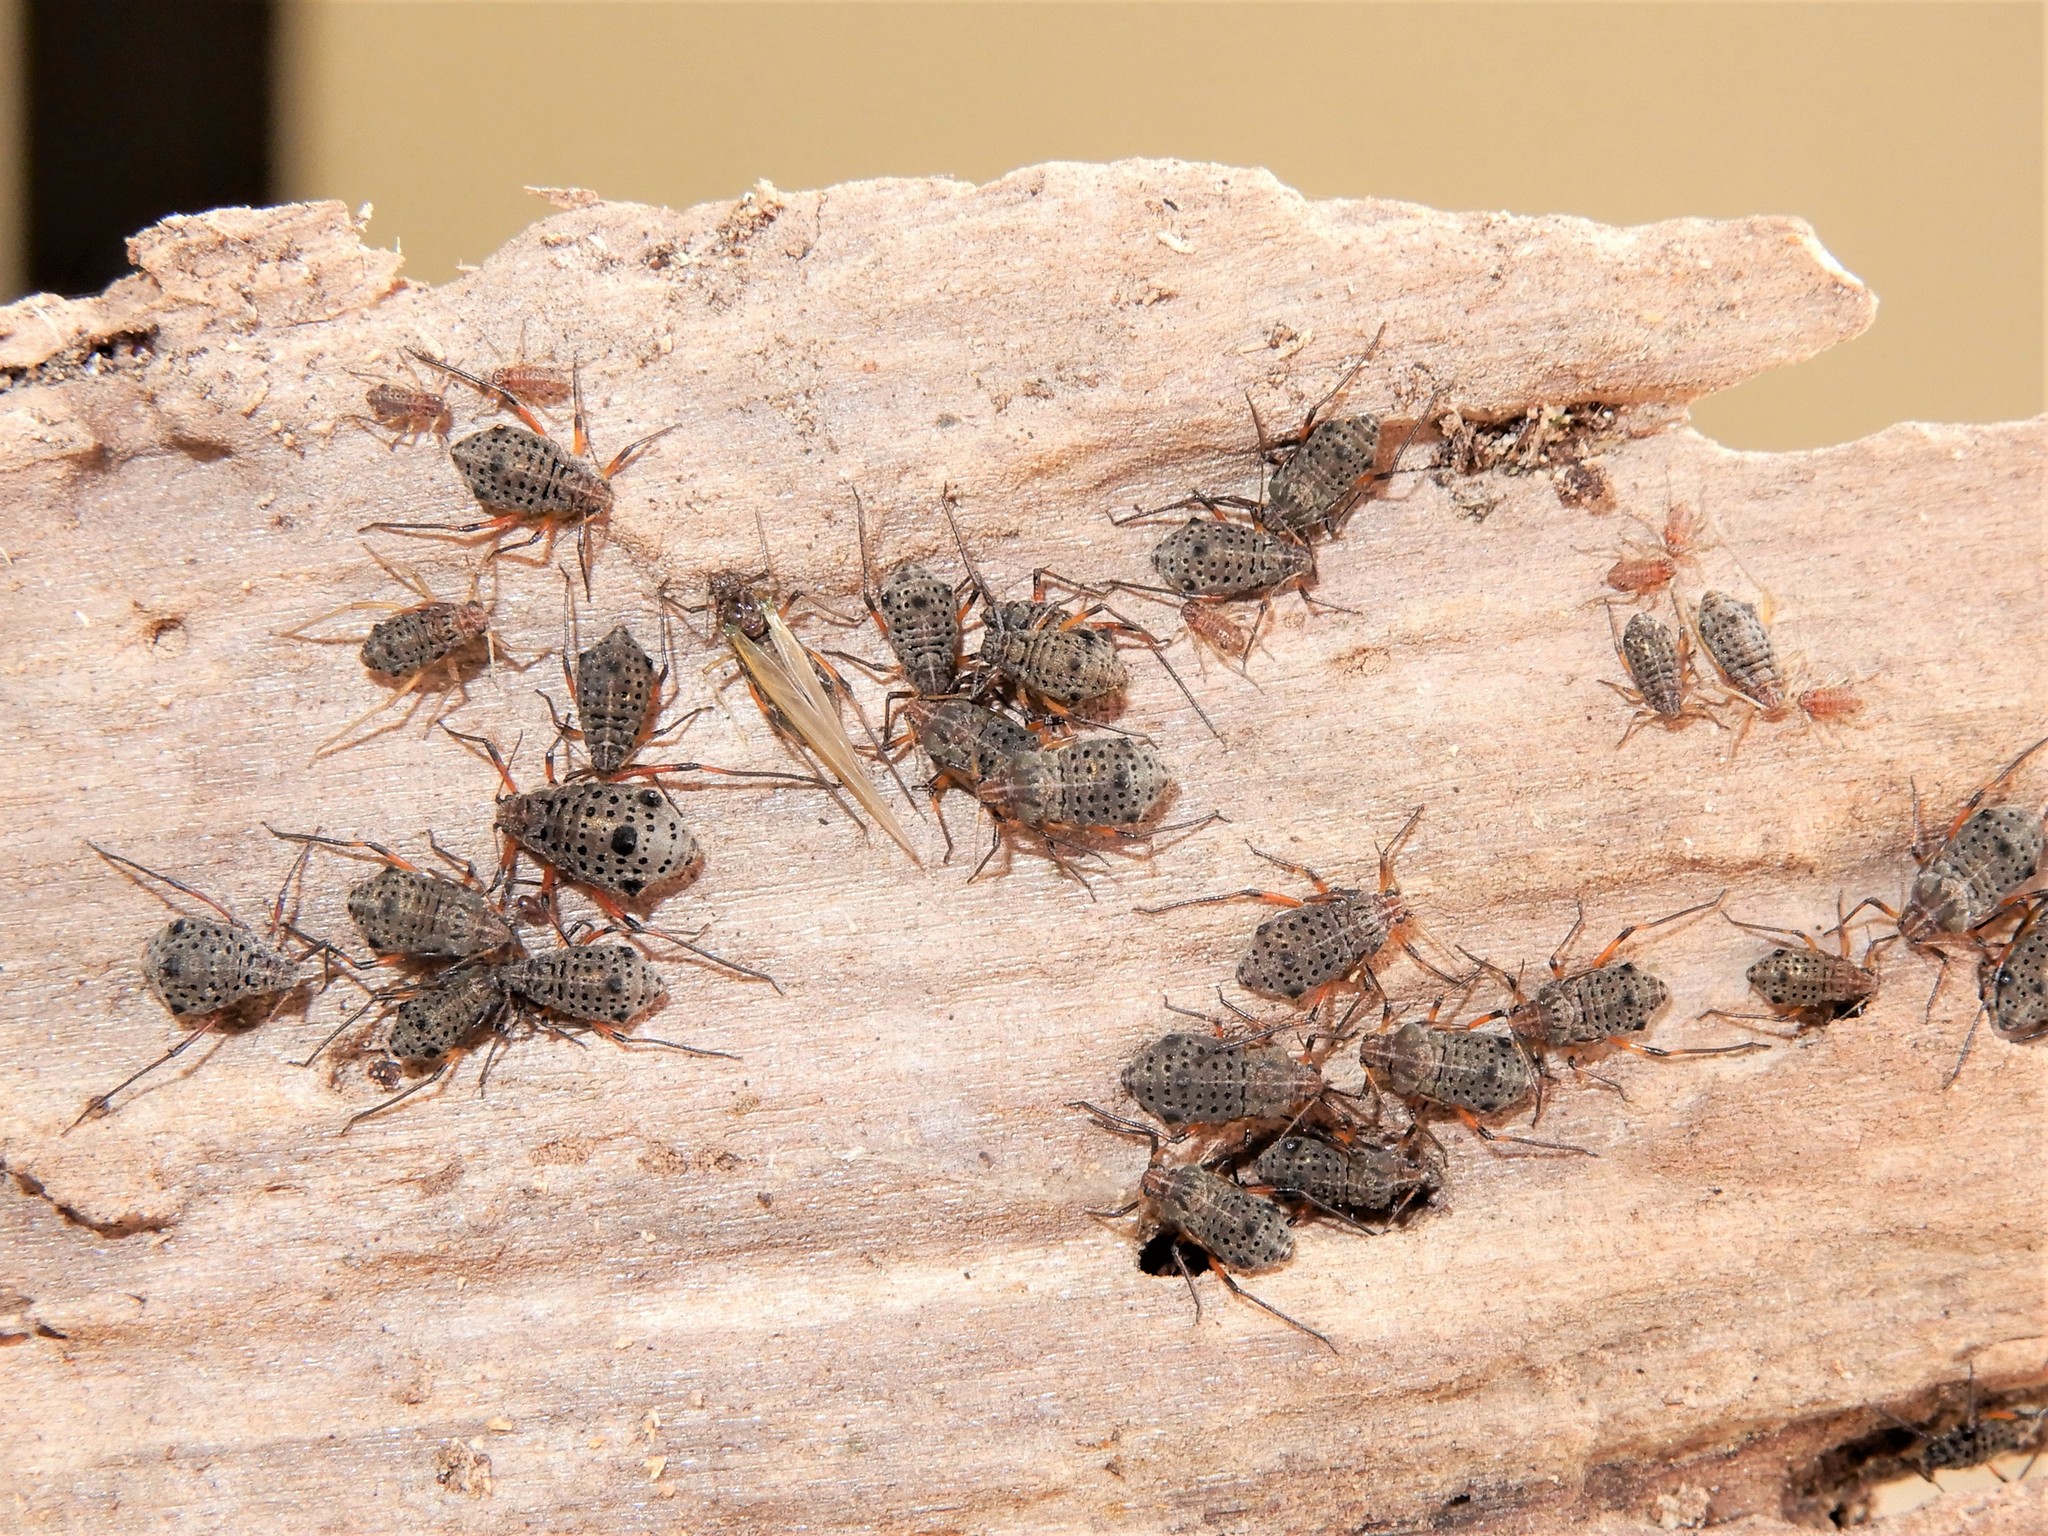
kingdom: Animalia
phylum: Arthropoda
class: Insecta
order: Hemiptera
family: Aphididae
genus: Tuberolachnus
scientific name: Tuberolachnus salignus
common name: Giant willow aphid
